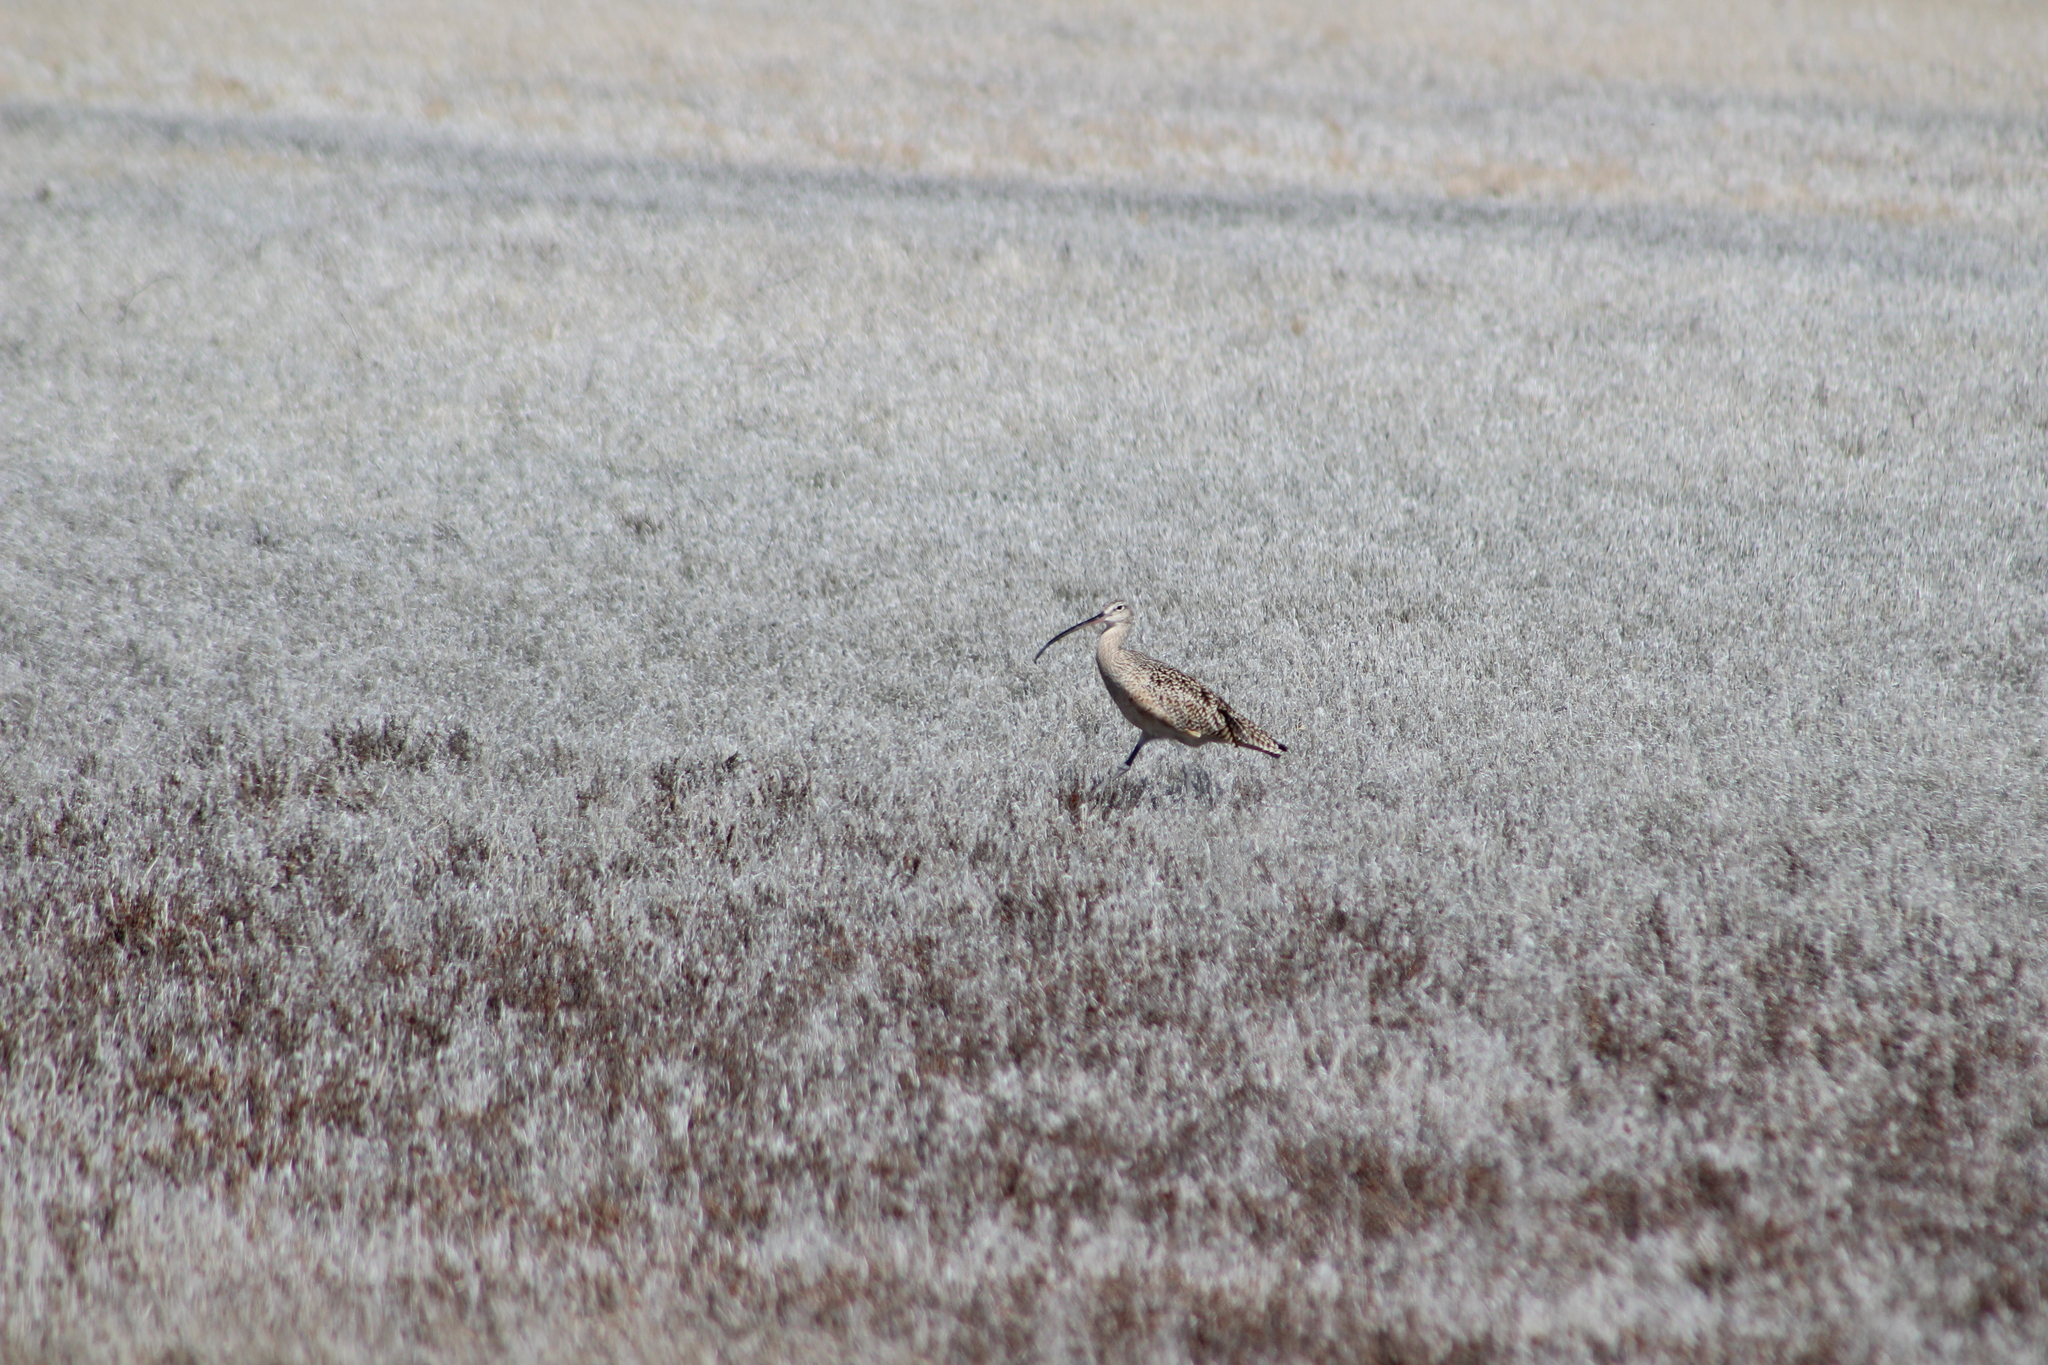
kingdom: Animalia
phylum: Chordata
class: Aves
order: Charadriiformes
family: Scolopacidae
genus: Numenius
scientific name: Numenius americanus
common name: Long-billed curlew
